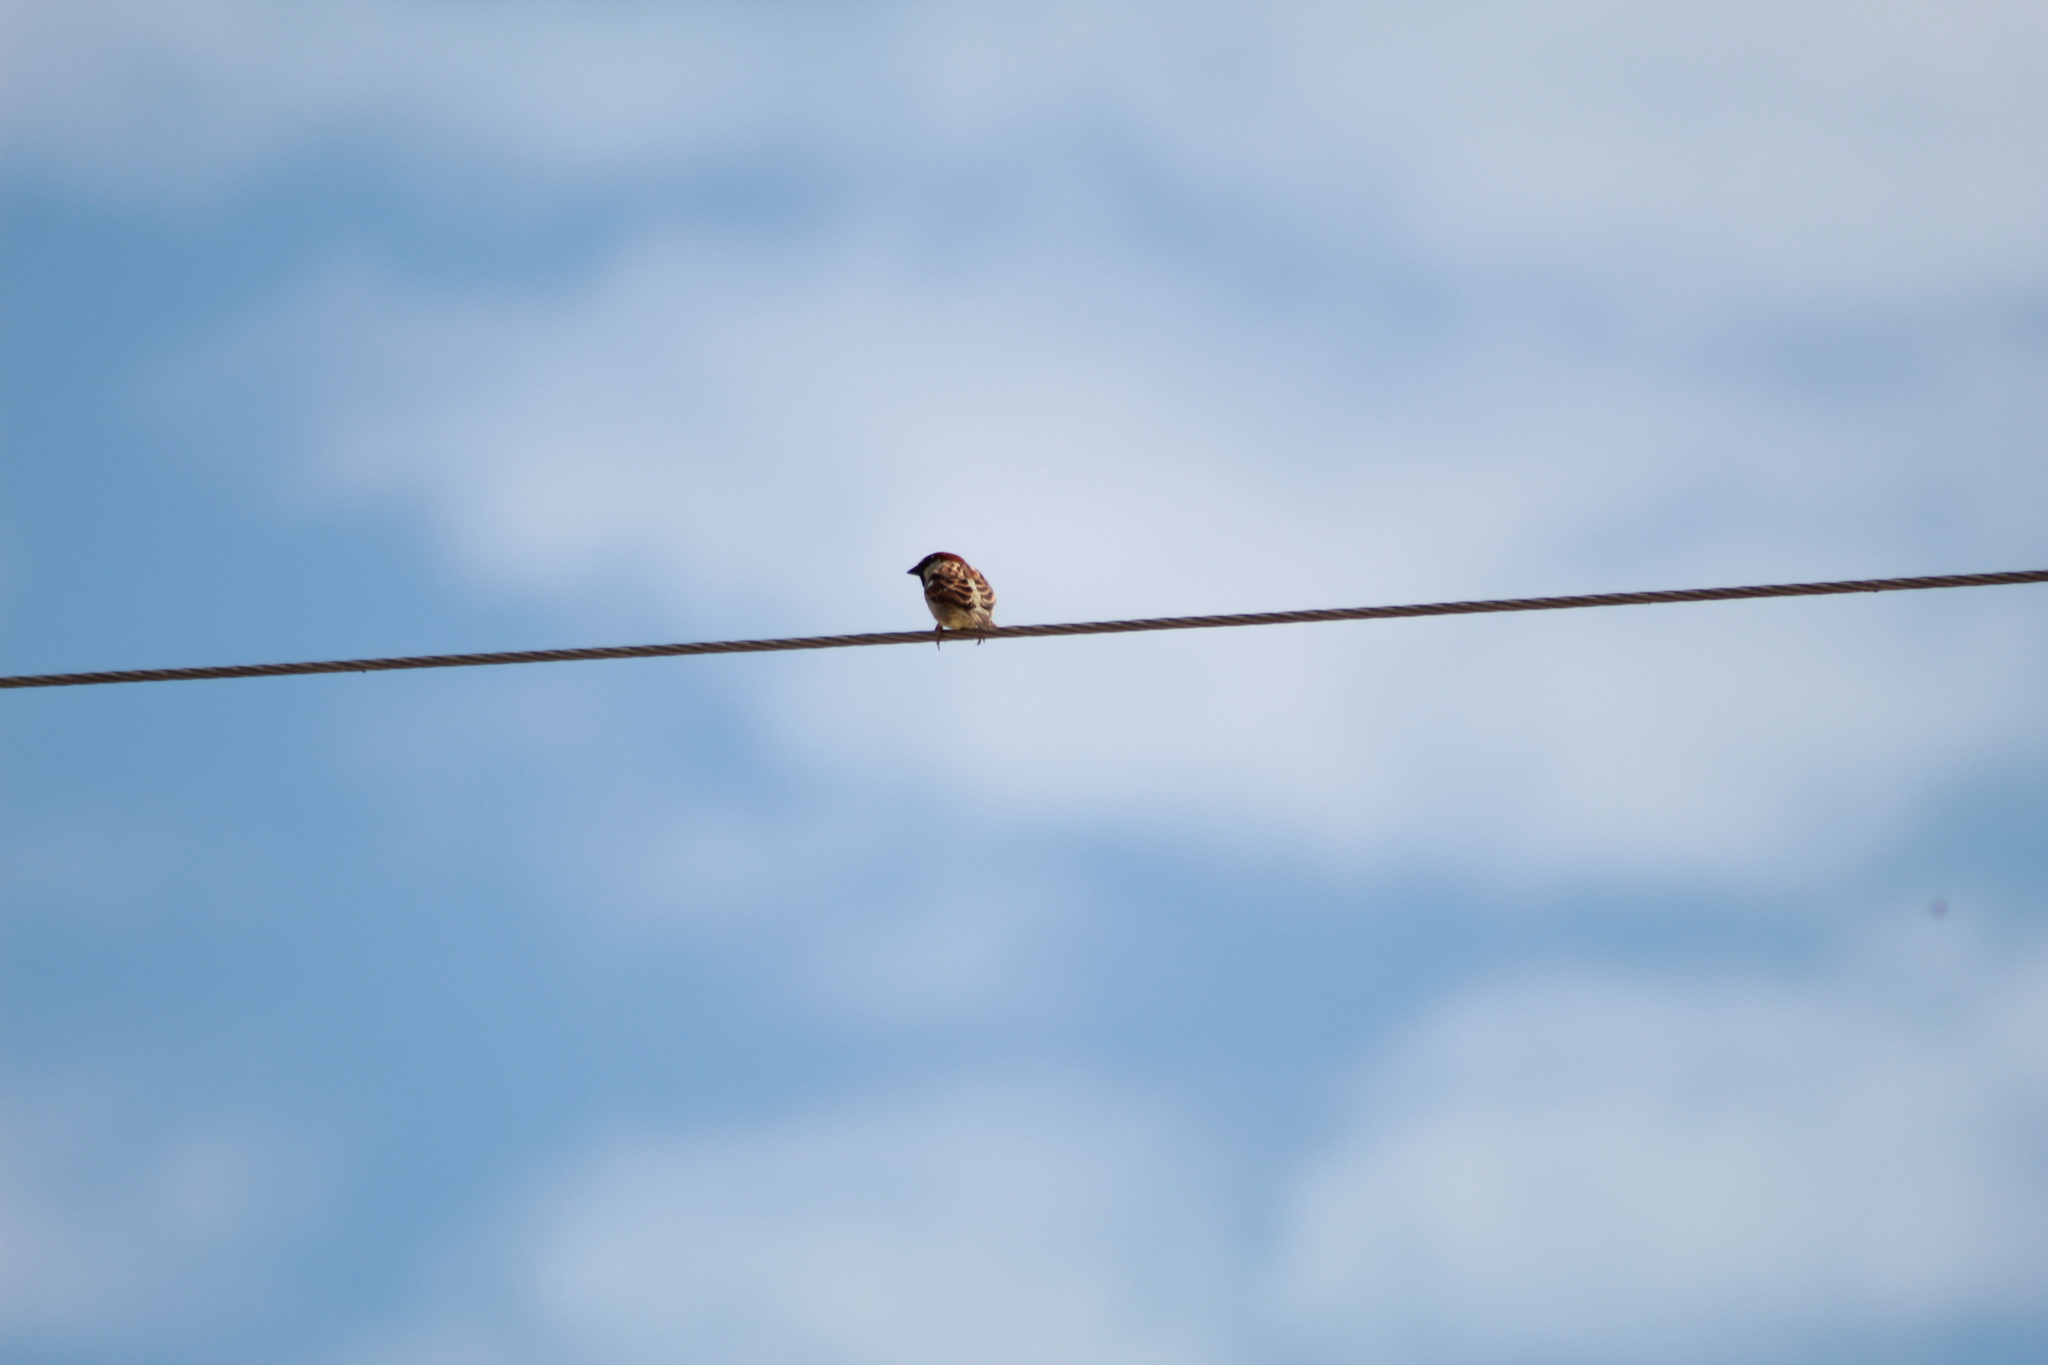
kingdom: Animalia
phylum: Chordata
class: Aves
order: Passeriformes
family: Passeridae
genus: Passer
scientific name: Passer domesticus
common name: House sparrow
